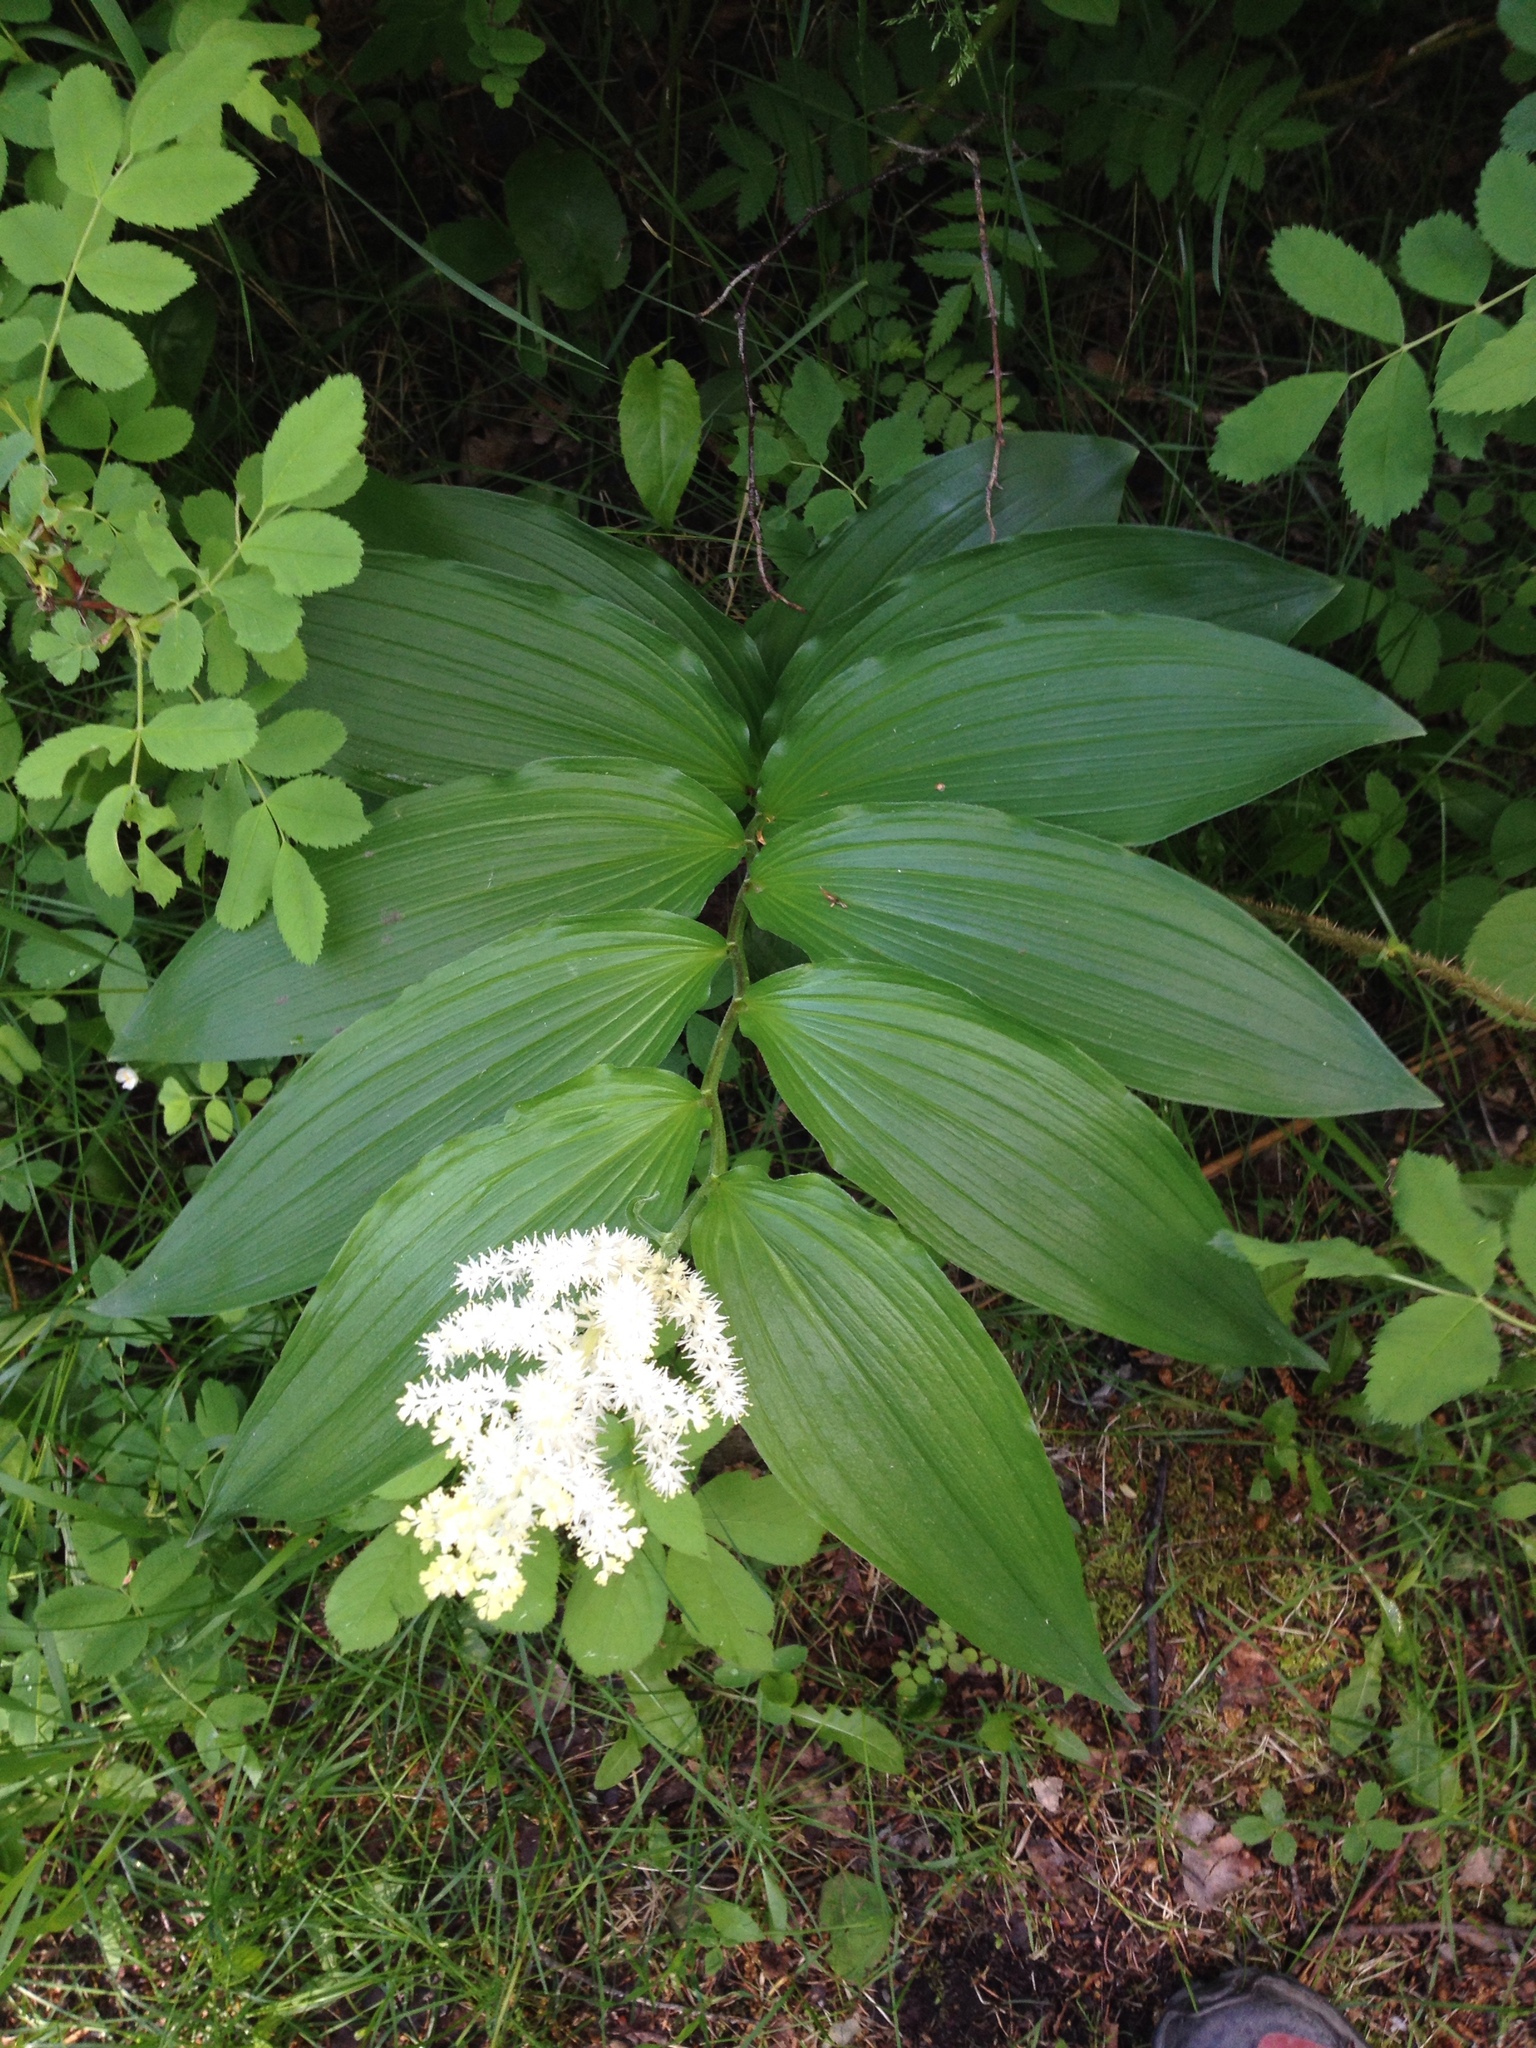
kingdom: Plantae
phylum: Tracheophyta
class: Liliopsida
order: Asparagales
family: Asparagaceae
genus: Maianthemum
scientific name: Maianthemum racemosum
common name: False spikenard
